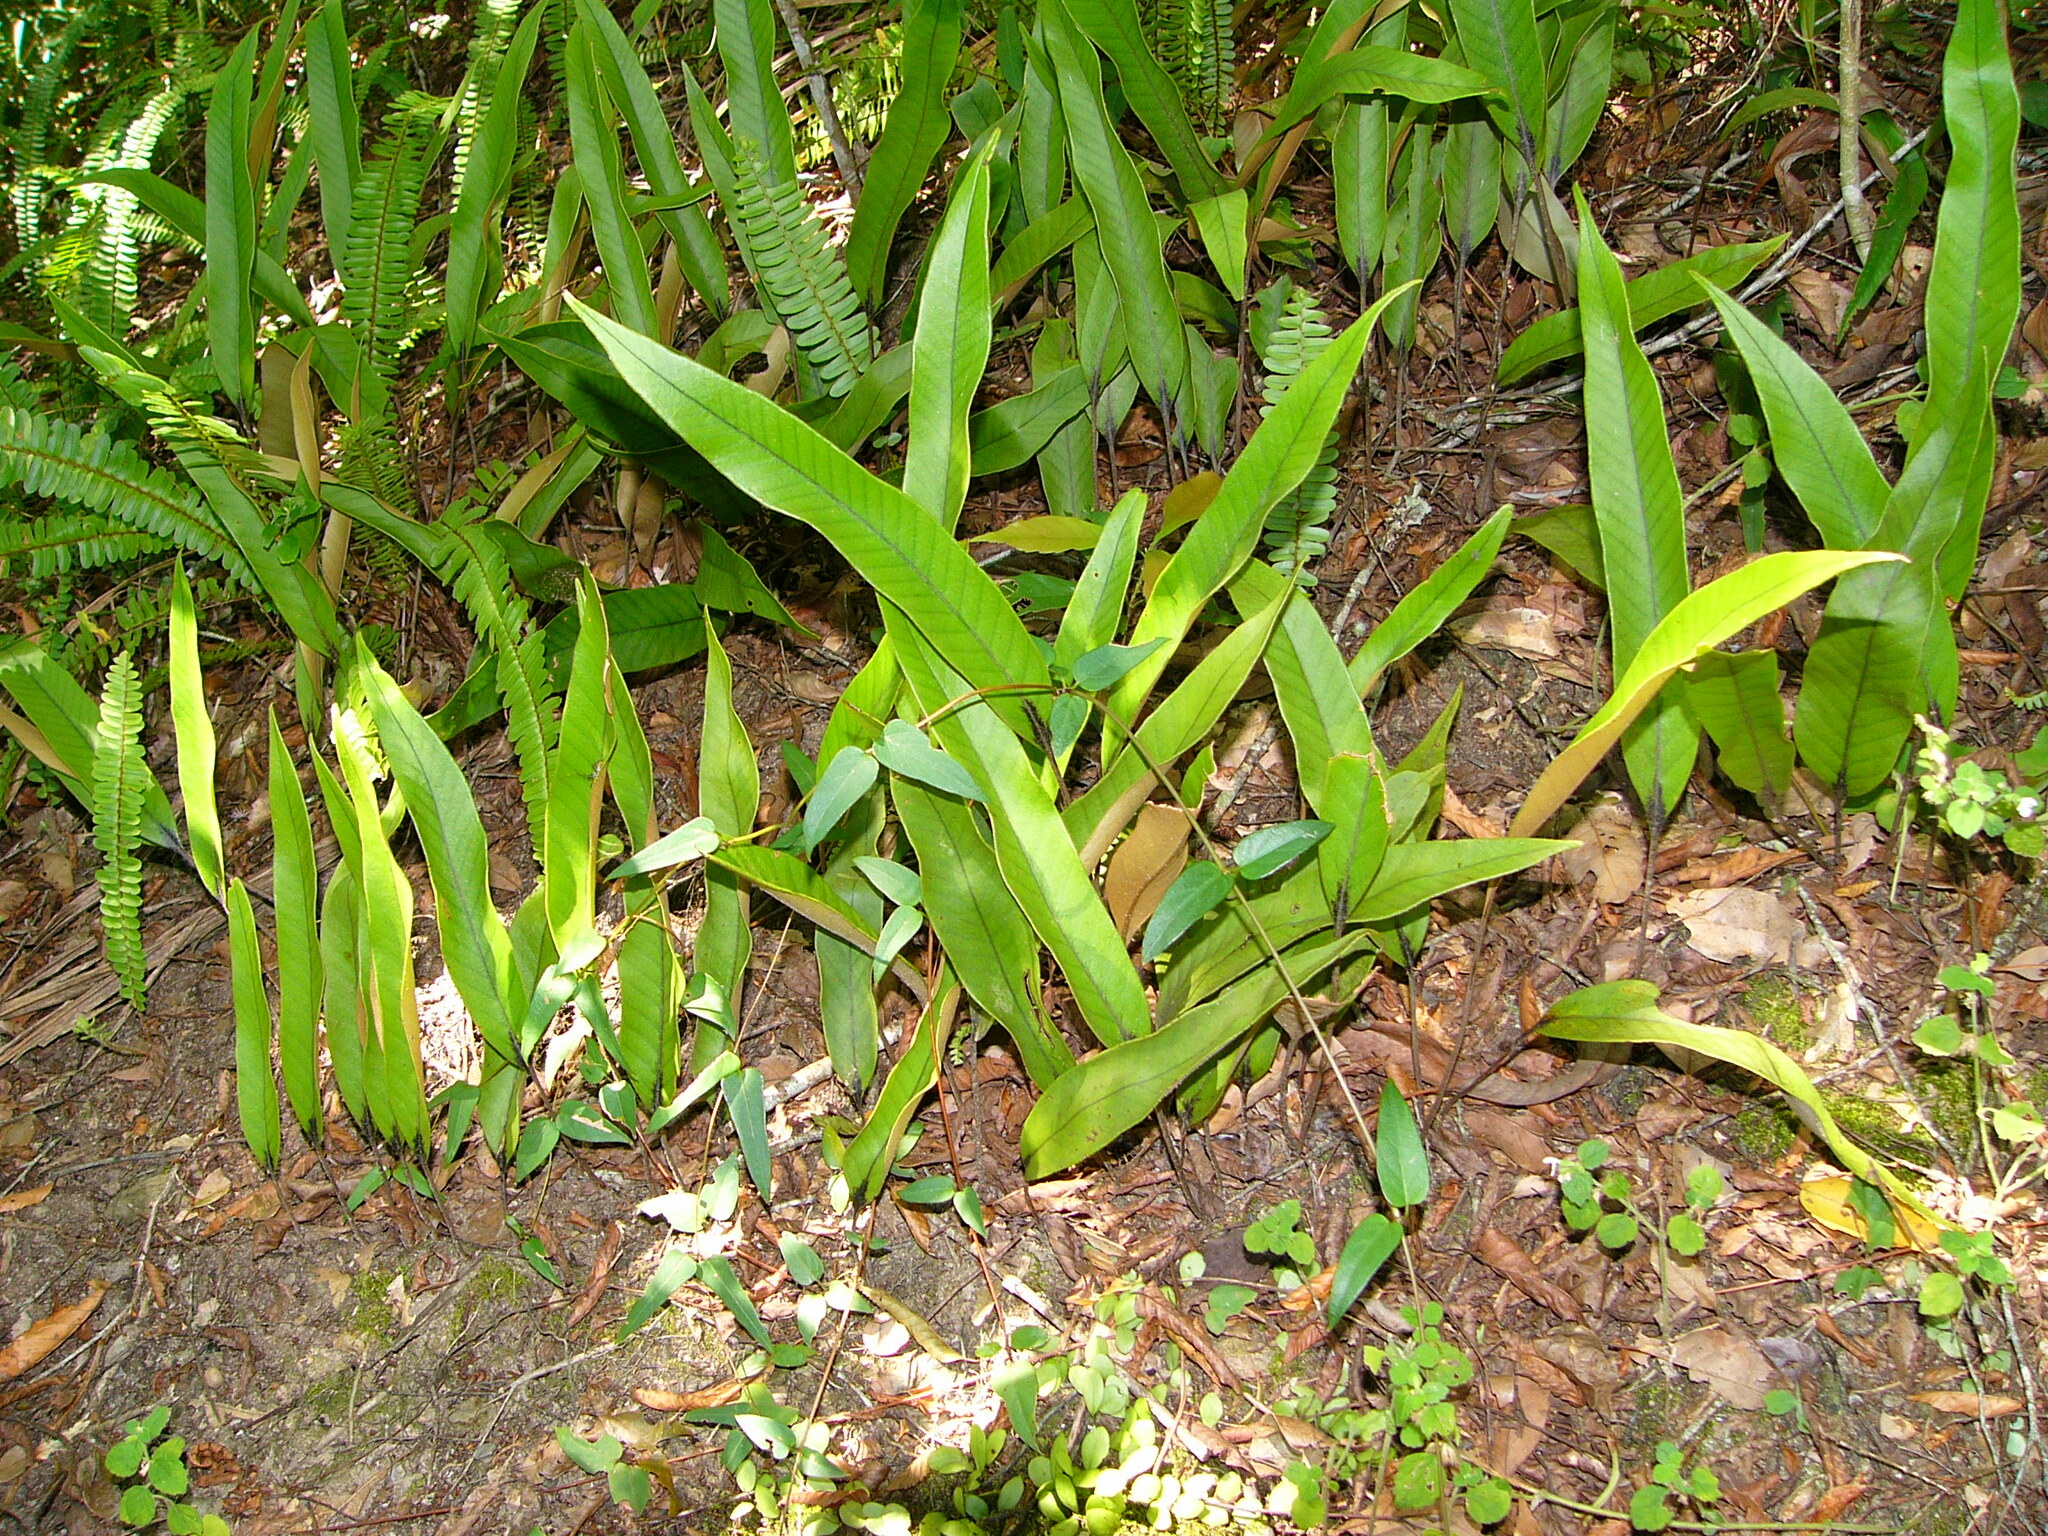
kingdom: Plantae
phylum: Tracheophyta
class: Polypodiopsida
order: Polypodiales
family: Polypodiaceae
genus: Pyrrosia
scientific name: Pyrrosia lingua
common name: Felt fern
